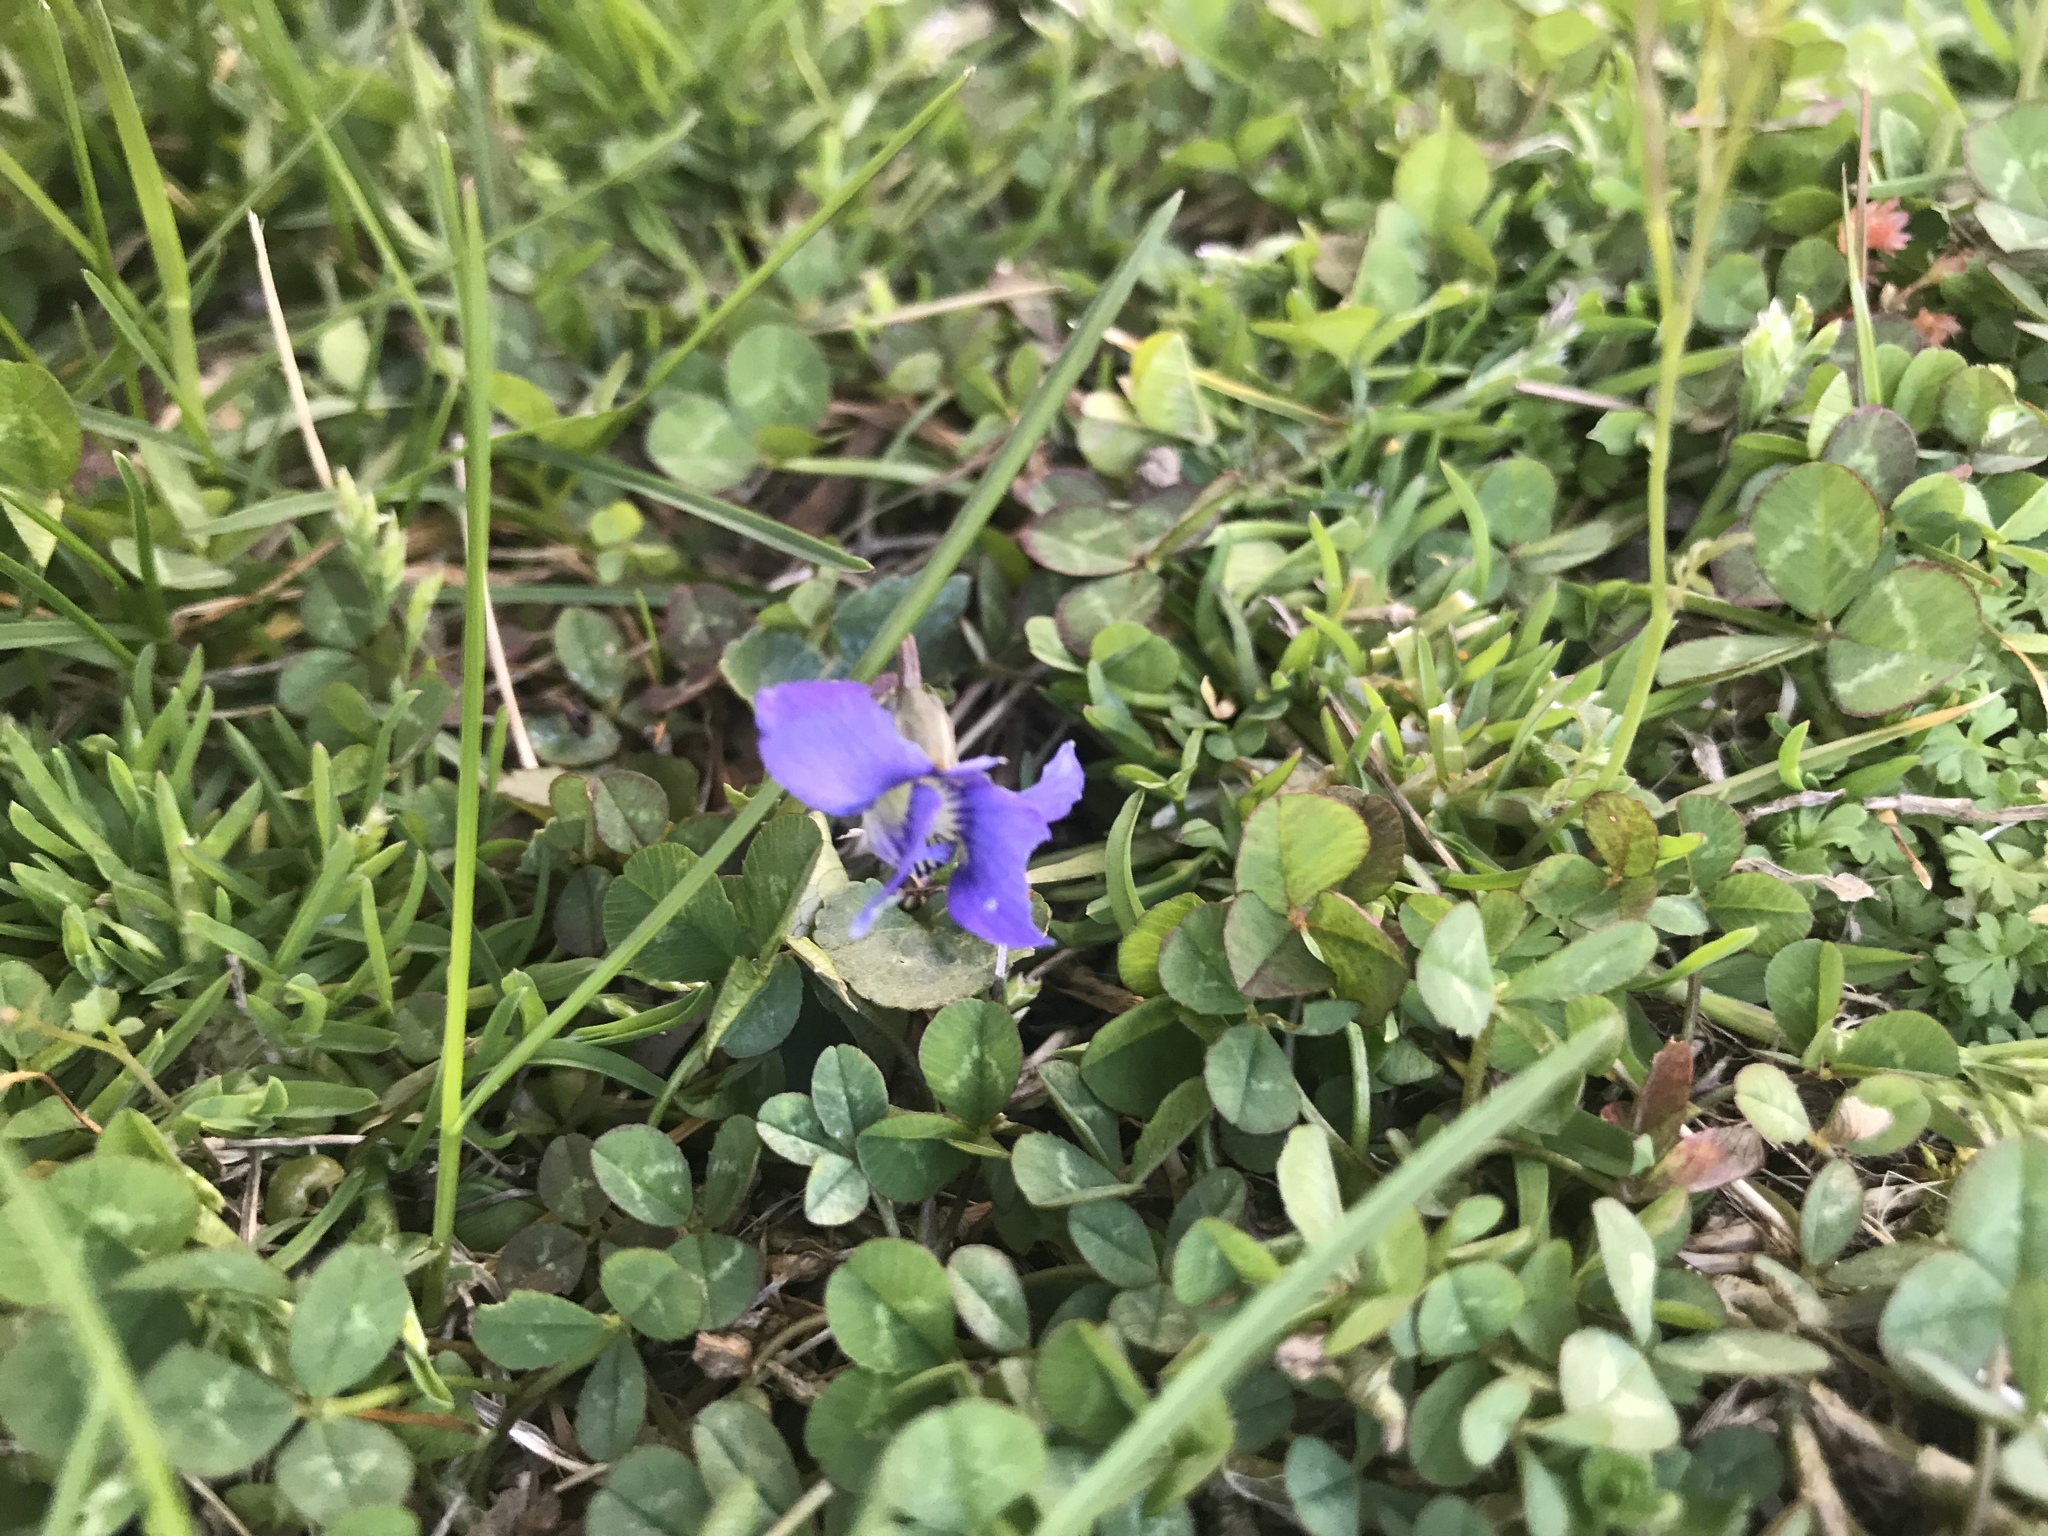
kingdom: Plantae
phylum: Tracheophyta
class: Magnoliopsida
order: Malpighiales
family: Violaceae
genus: Viola
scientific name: Viola sororia
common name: Dooryard violet
